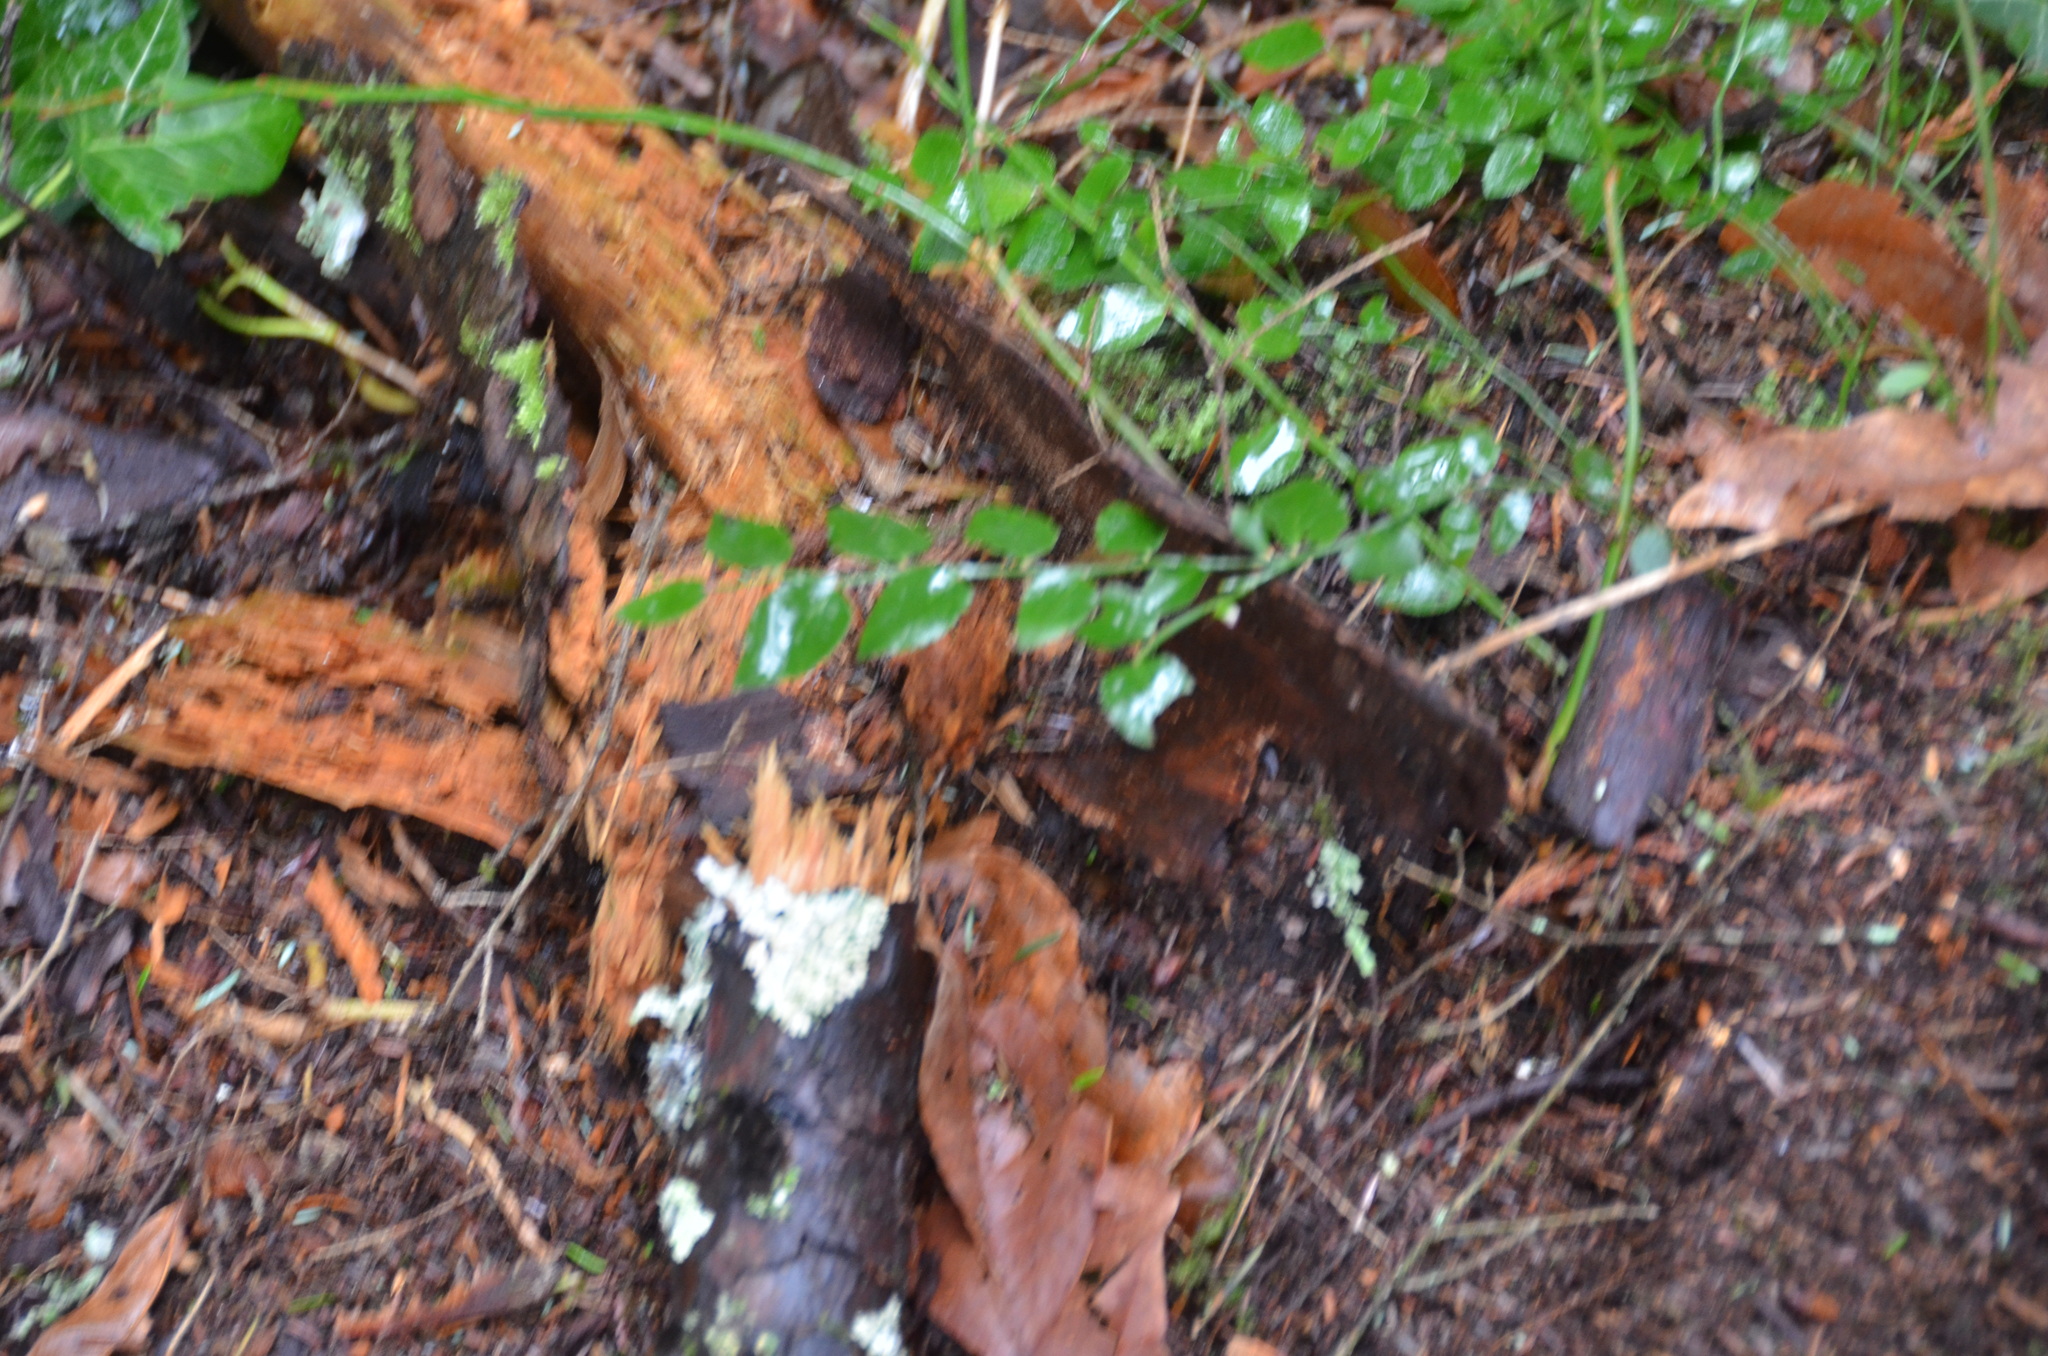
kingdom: Plantae
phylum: Tracheophyta
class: Magnoliopsida
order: Ericales
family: Ericaceae
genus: Vaccinium
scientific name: Vaccinium parvifolium
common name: Red-huckleberry
